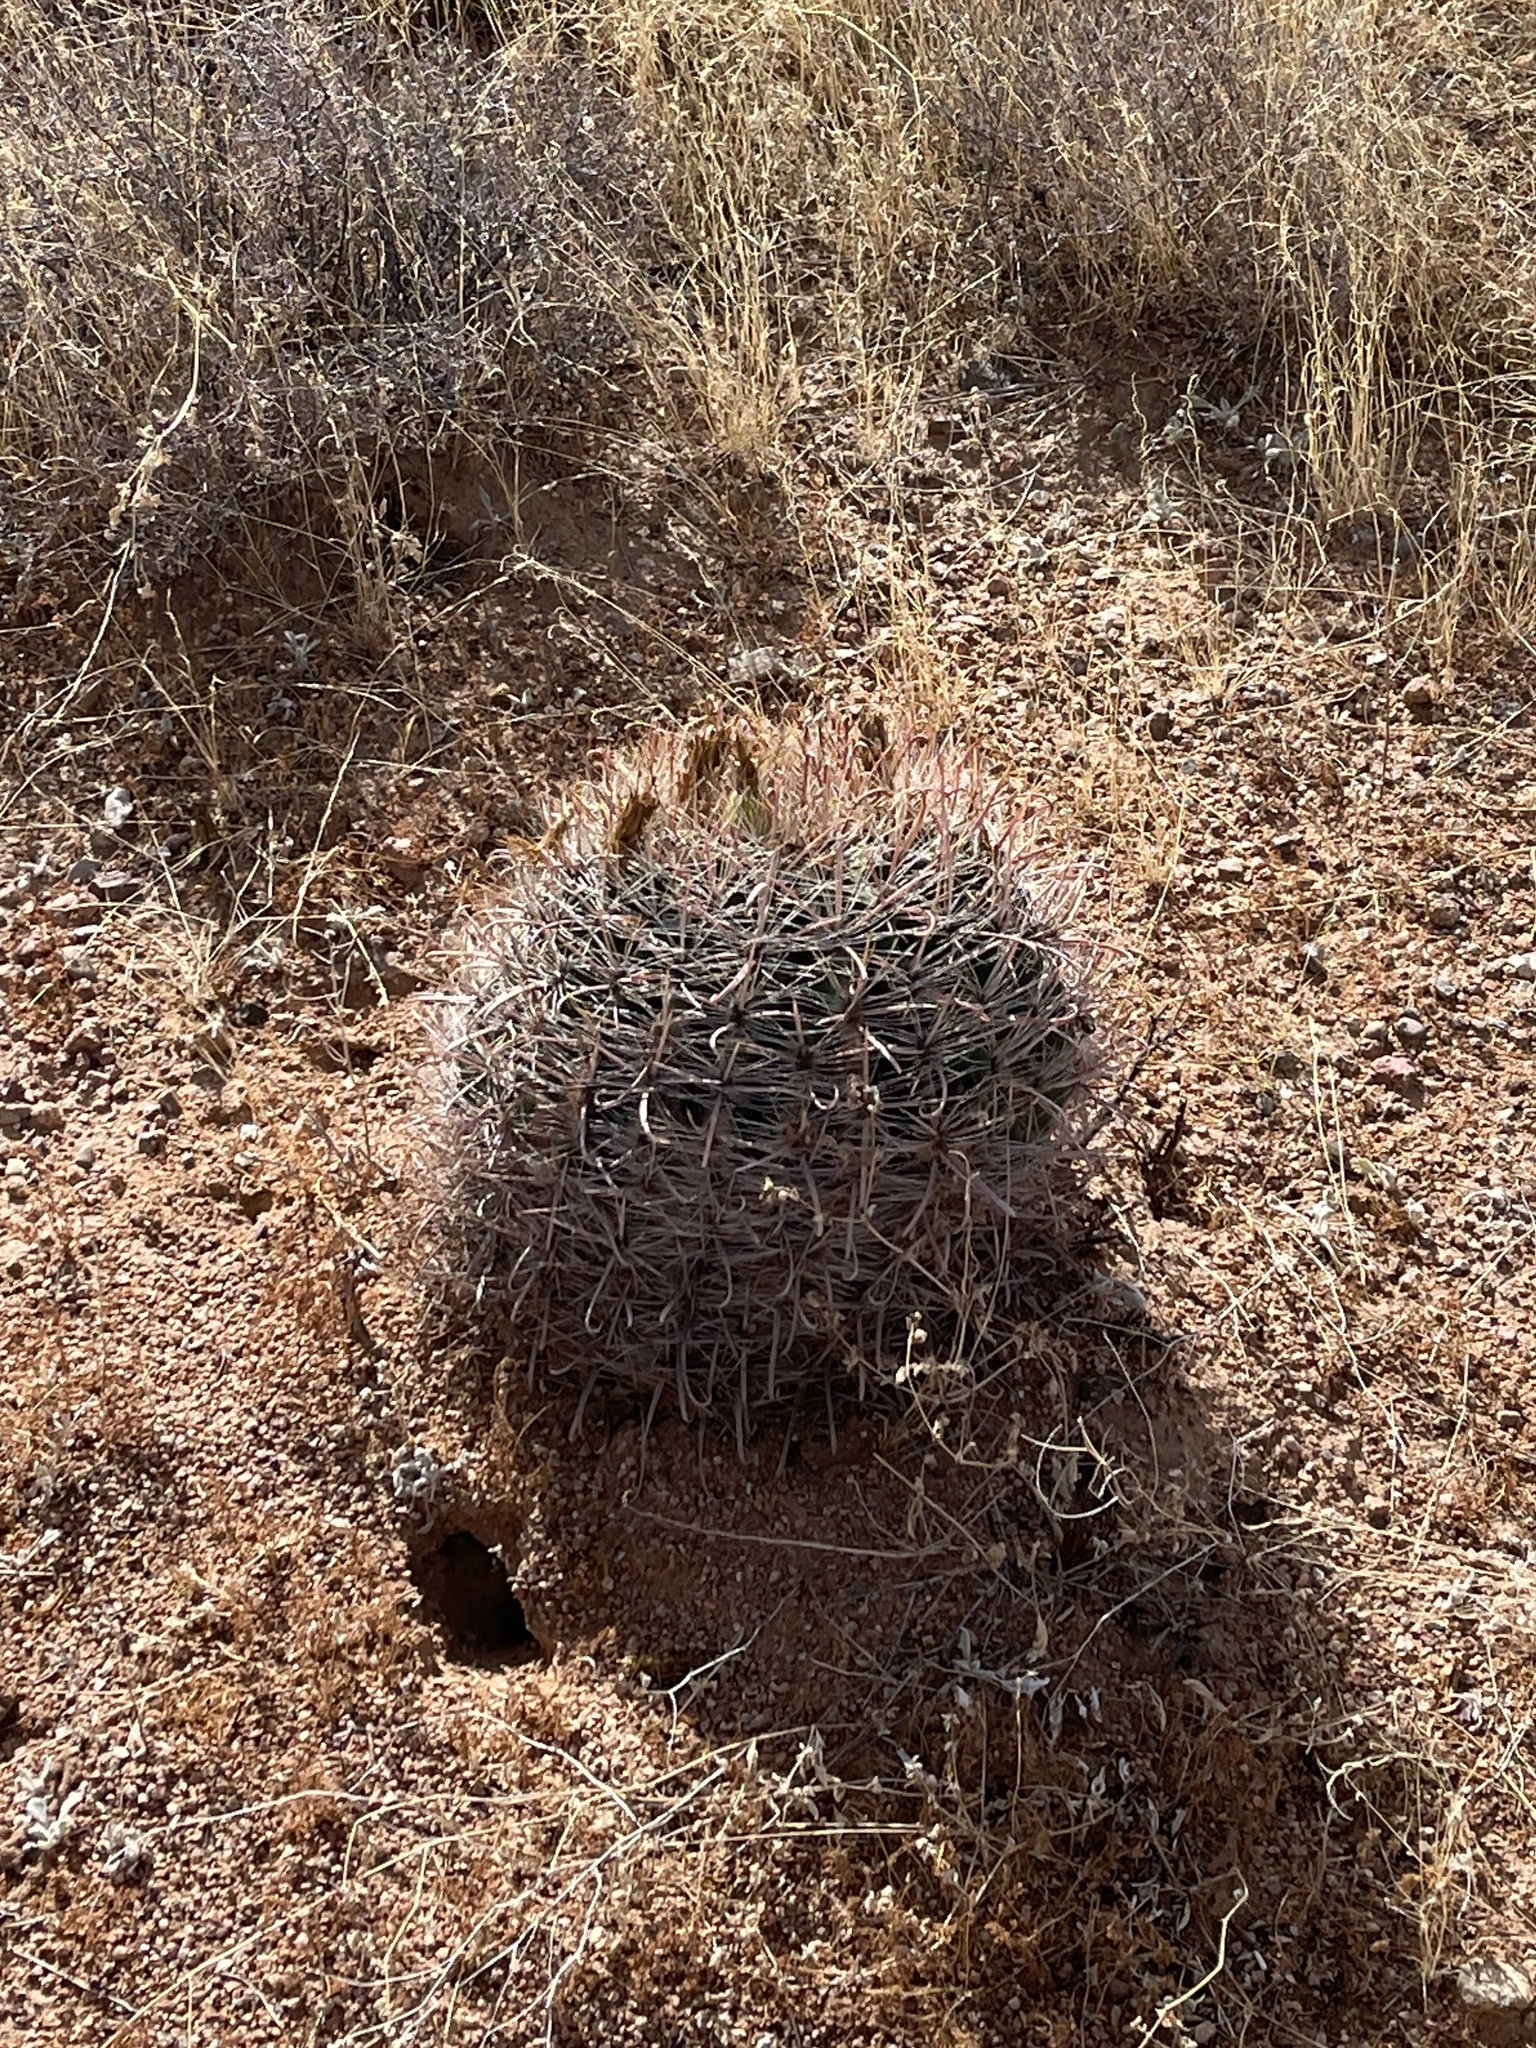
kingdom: Plantae
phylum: Tracheophyta
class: Magnoliopsida
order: Caryophyllales
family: Cactaceae
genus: Ferocactus
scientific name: Ferocactus wislizeni
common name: Candy barrel cactus
